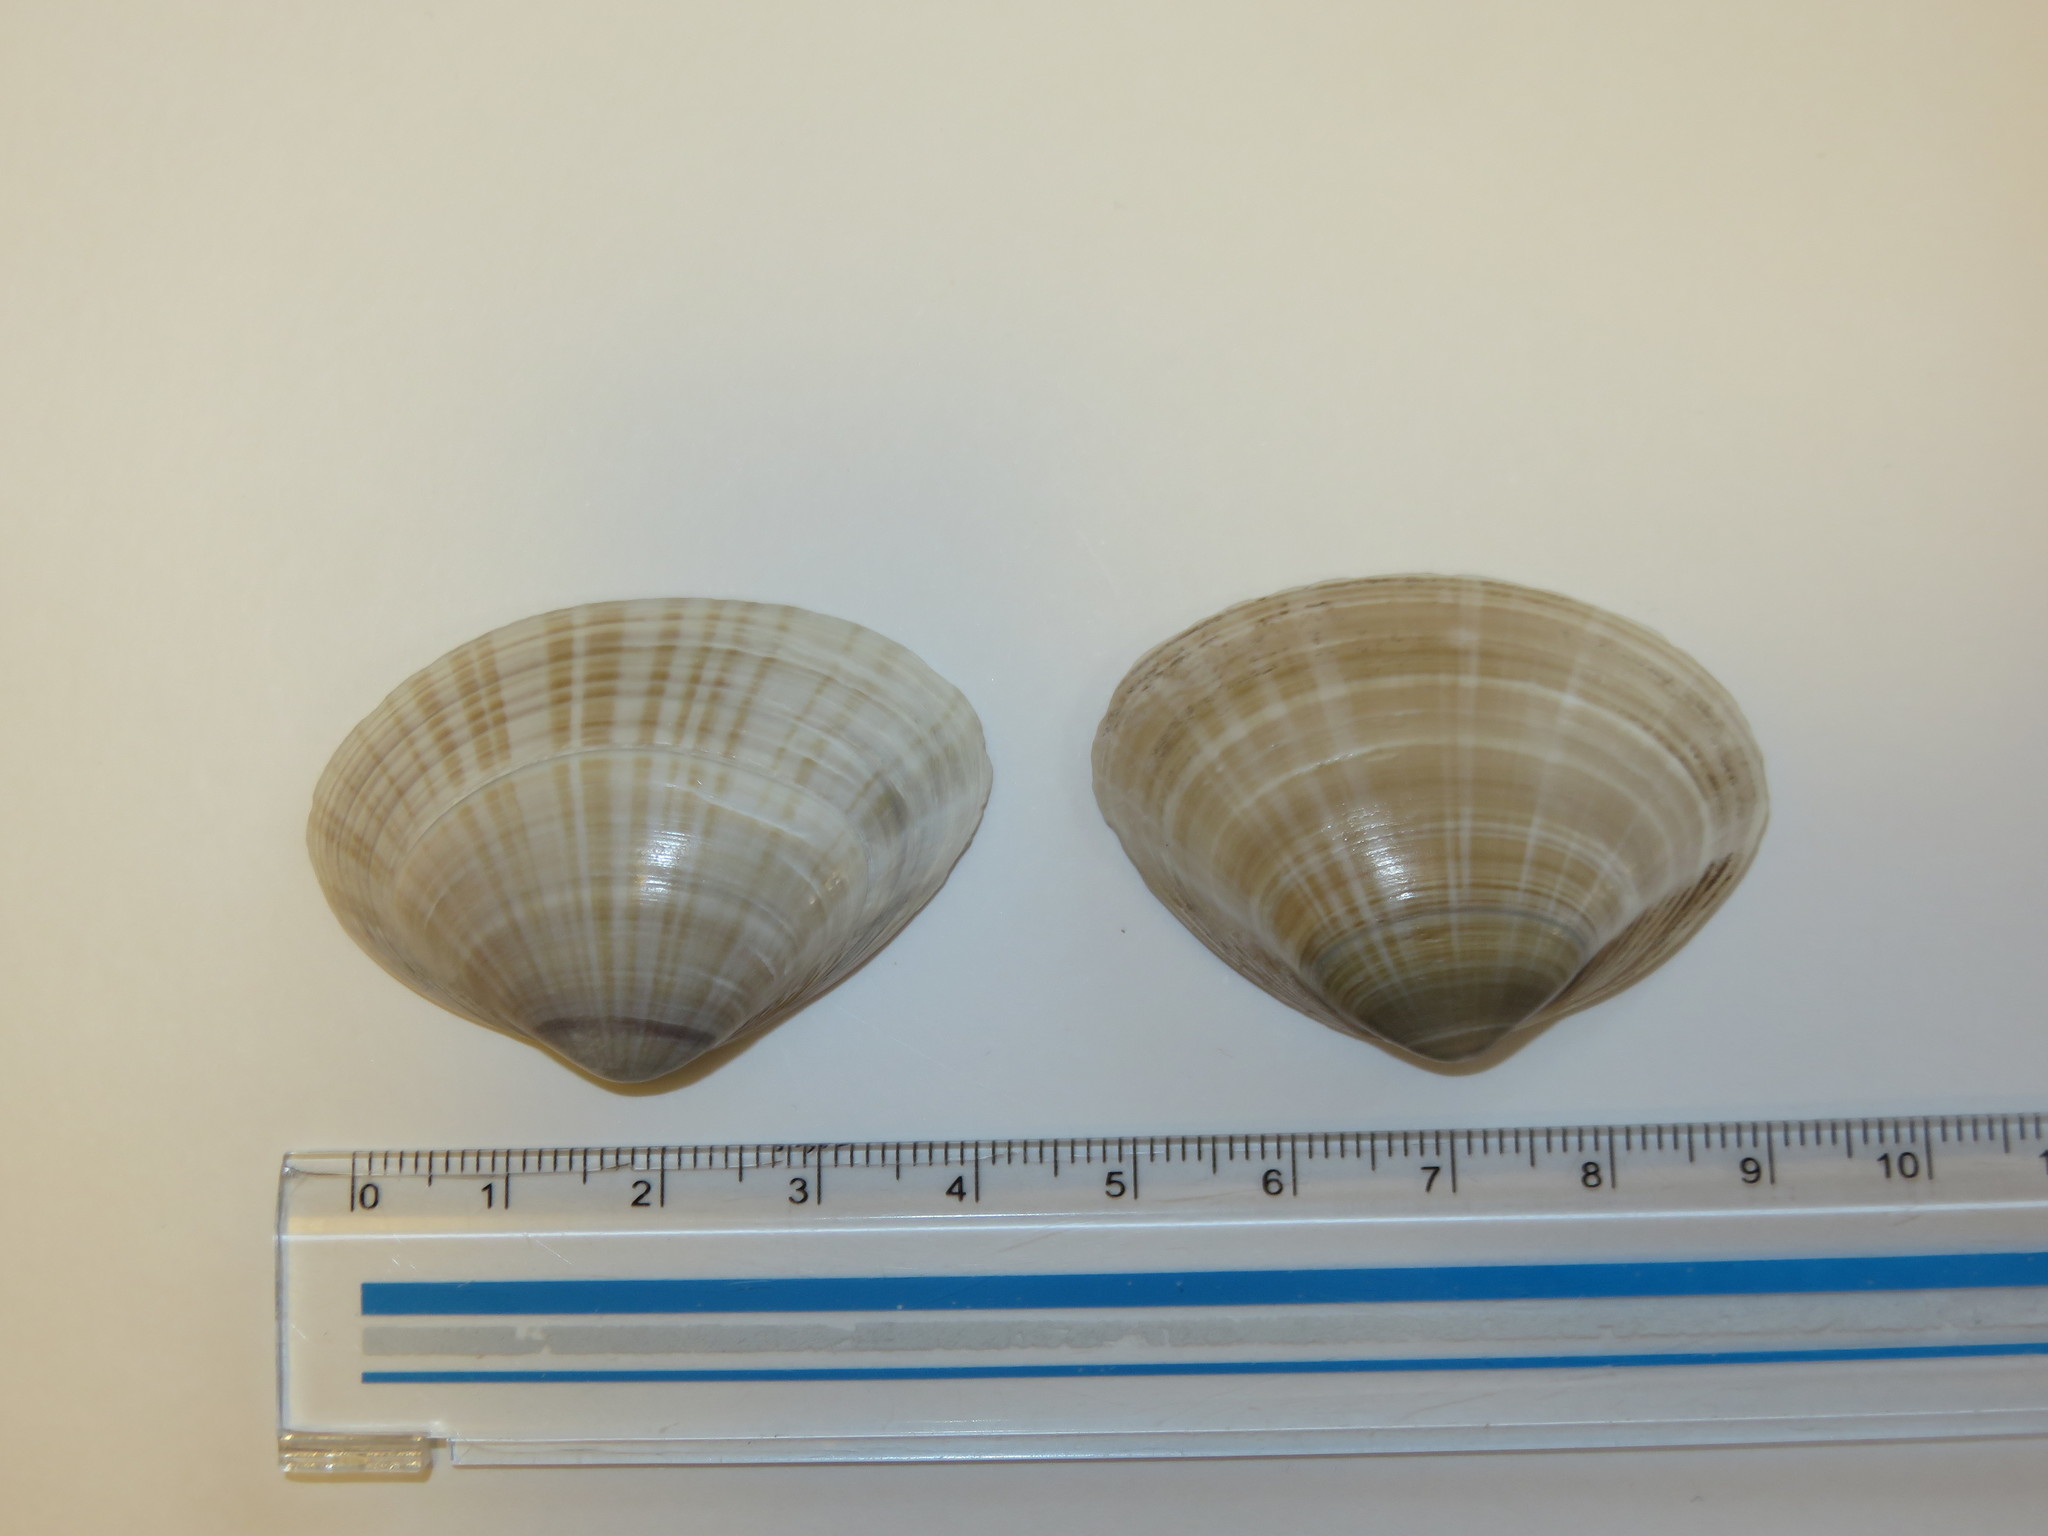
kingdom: Animalia
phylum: Mollusca
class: Bivalvia
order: Venerida
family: Mactridae
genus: Mactra
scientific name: Mactra chinensis
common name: Chinese surf clam
